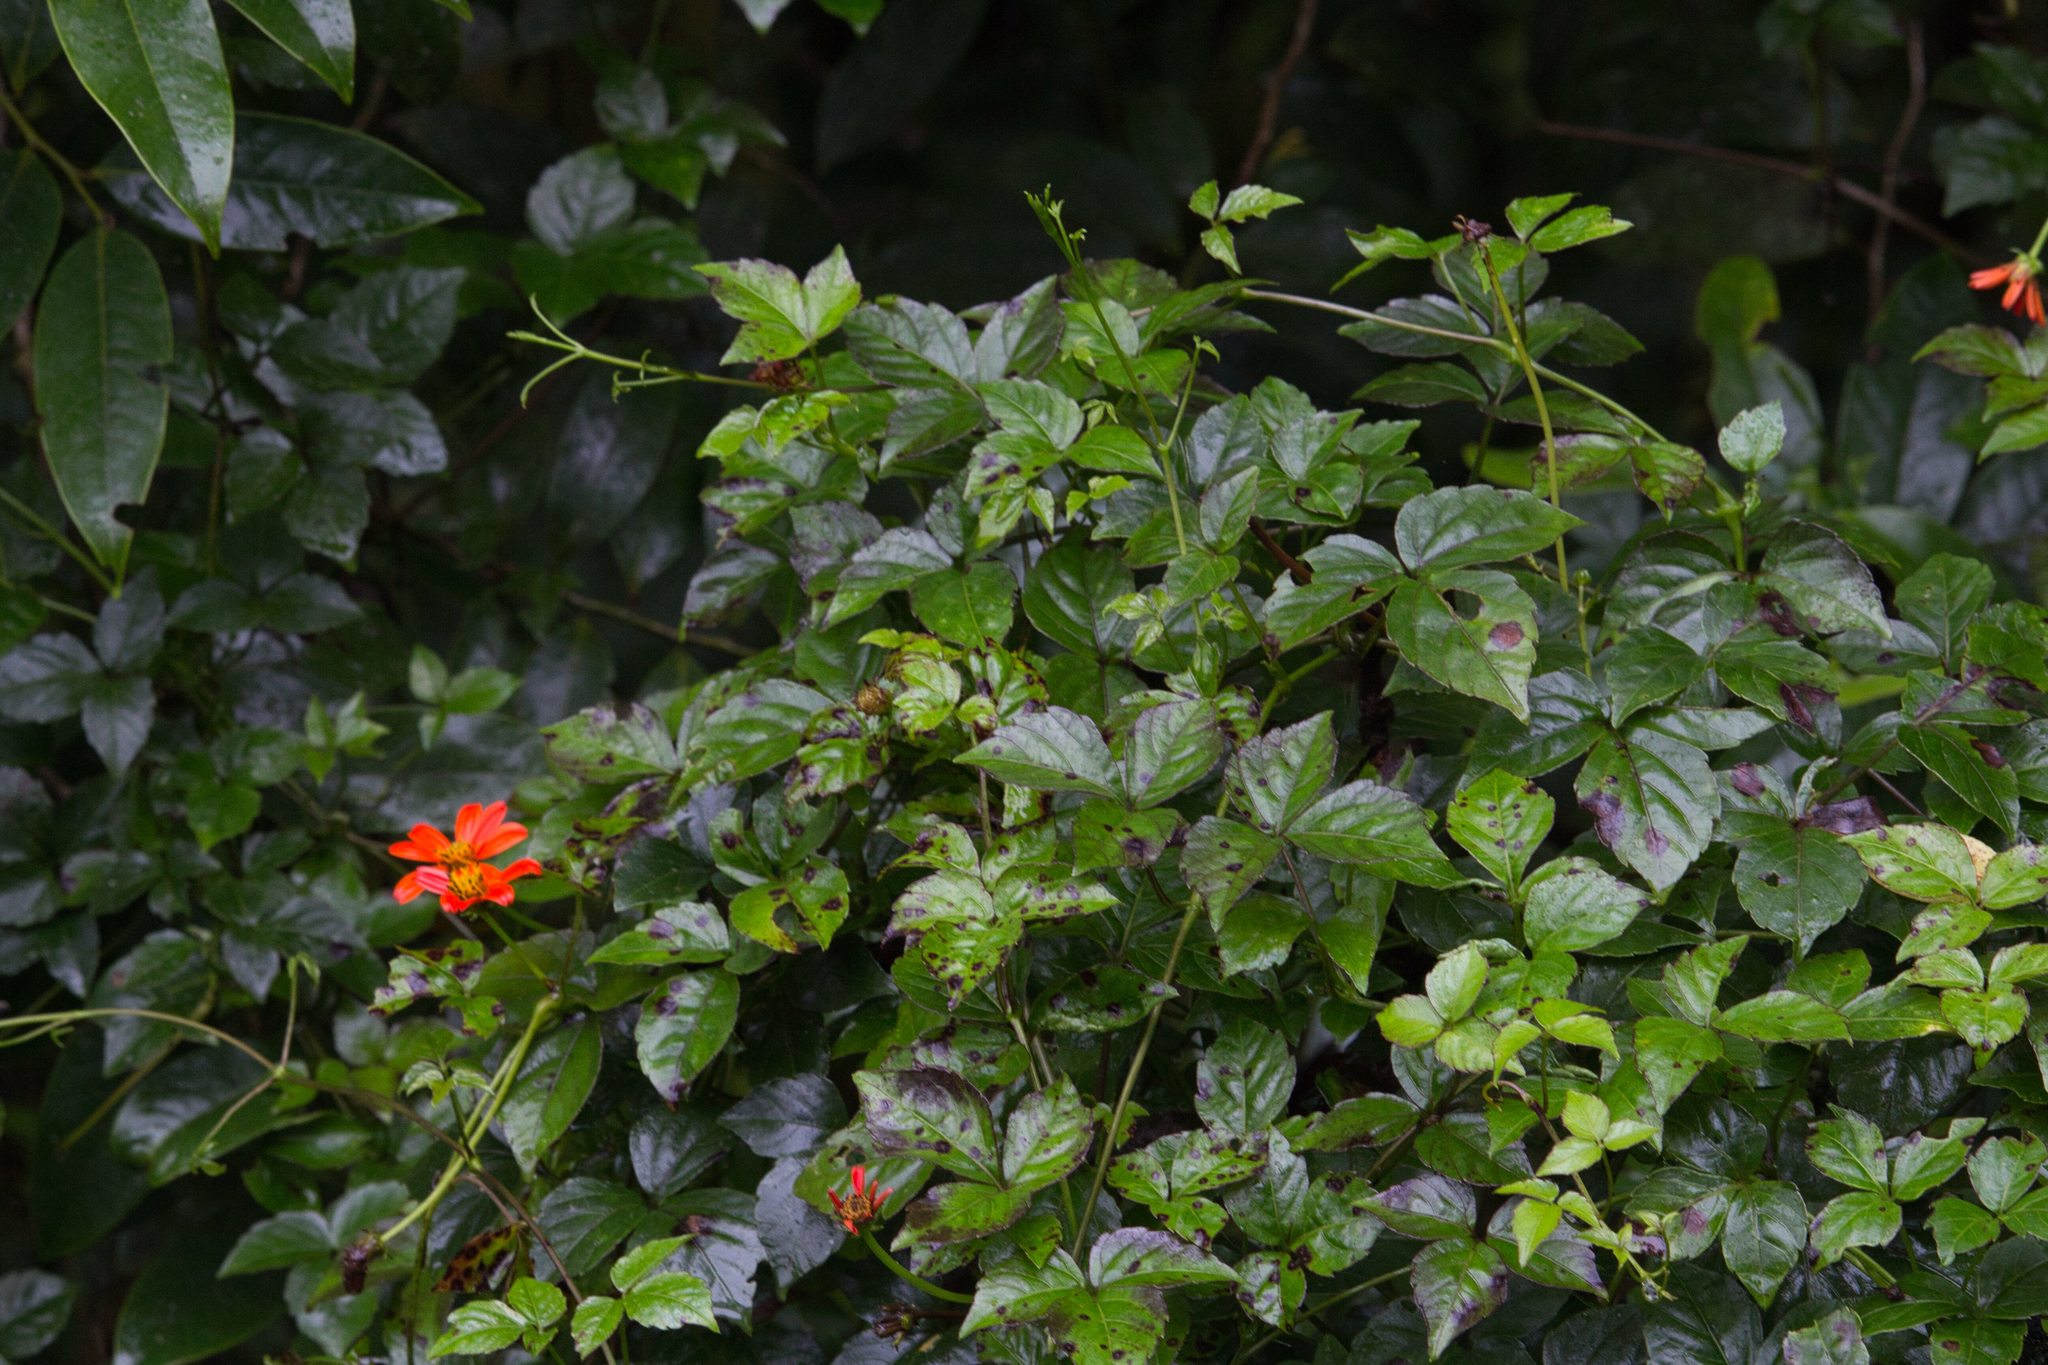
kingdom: Plantae
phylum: Tracheophyta
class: Magnoliopsida
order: Asterales
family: Asteraceae
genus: Hidalgoa
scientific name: Hidalgoa ternata
